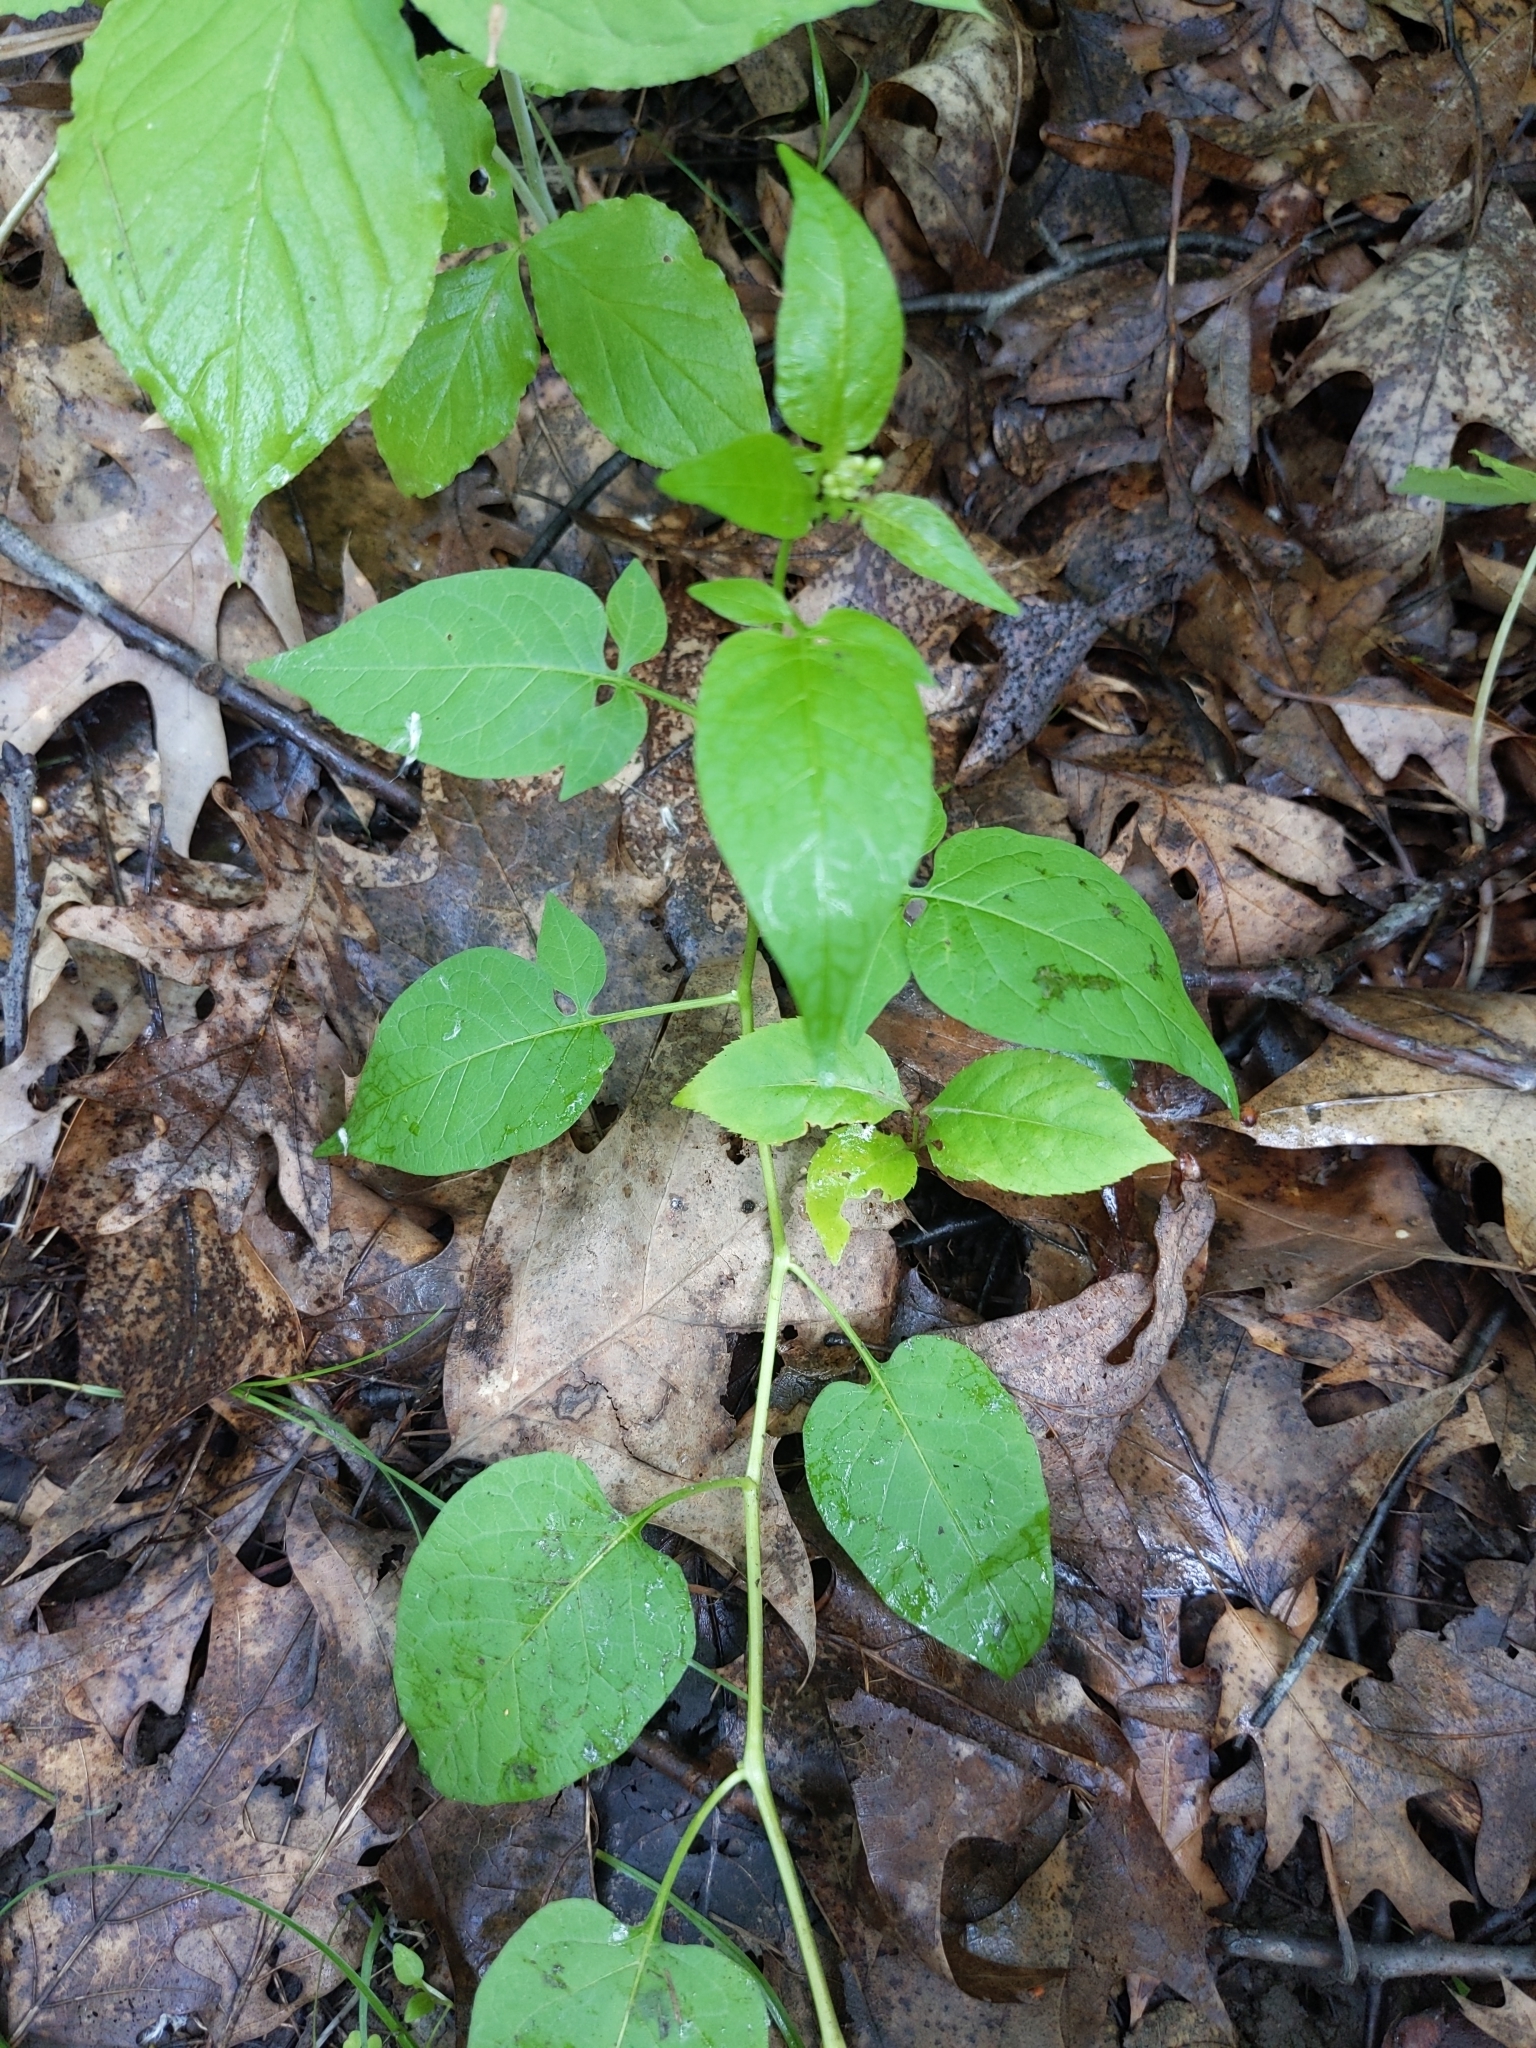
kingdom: Plantae
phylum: Tracheophyta
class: Magnoliopsida
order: Solanales
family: Solanaceae
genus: Solanum
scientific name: Solanum dulcamara
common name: Climbing nightshade
